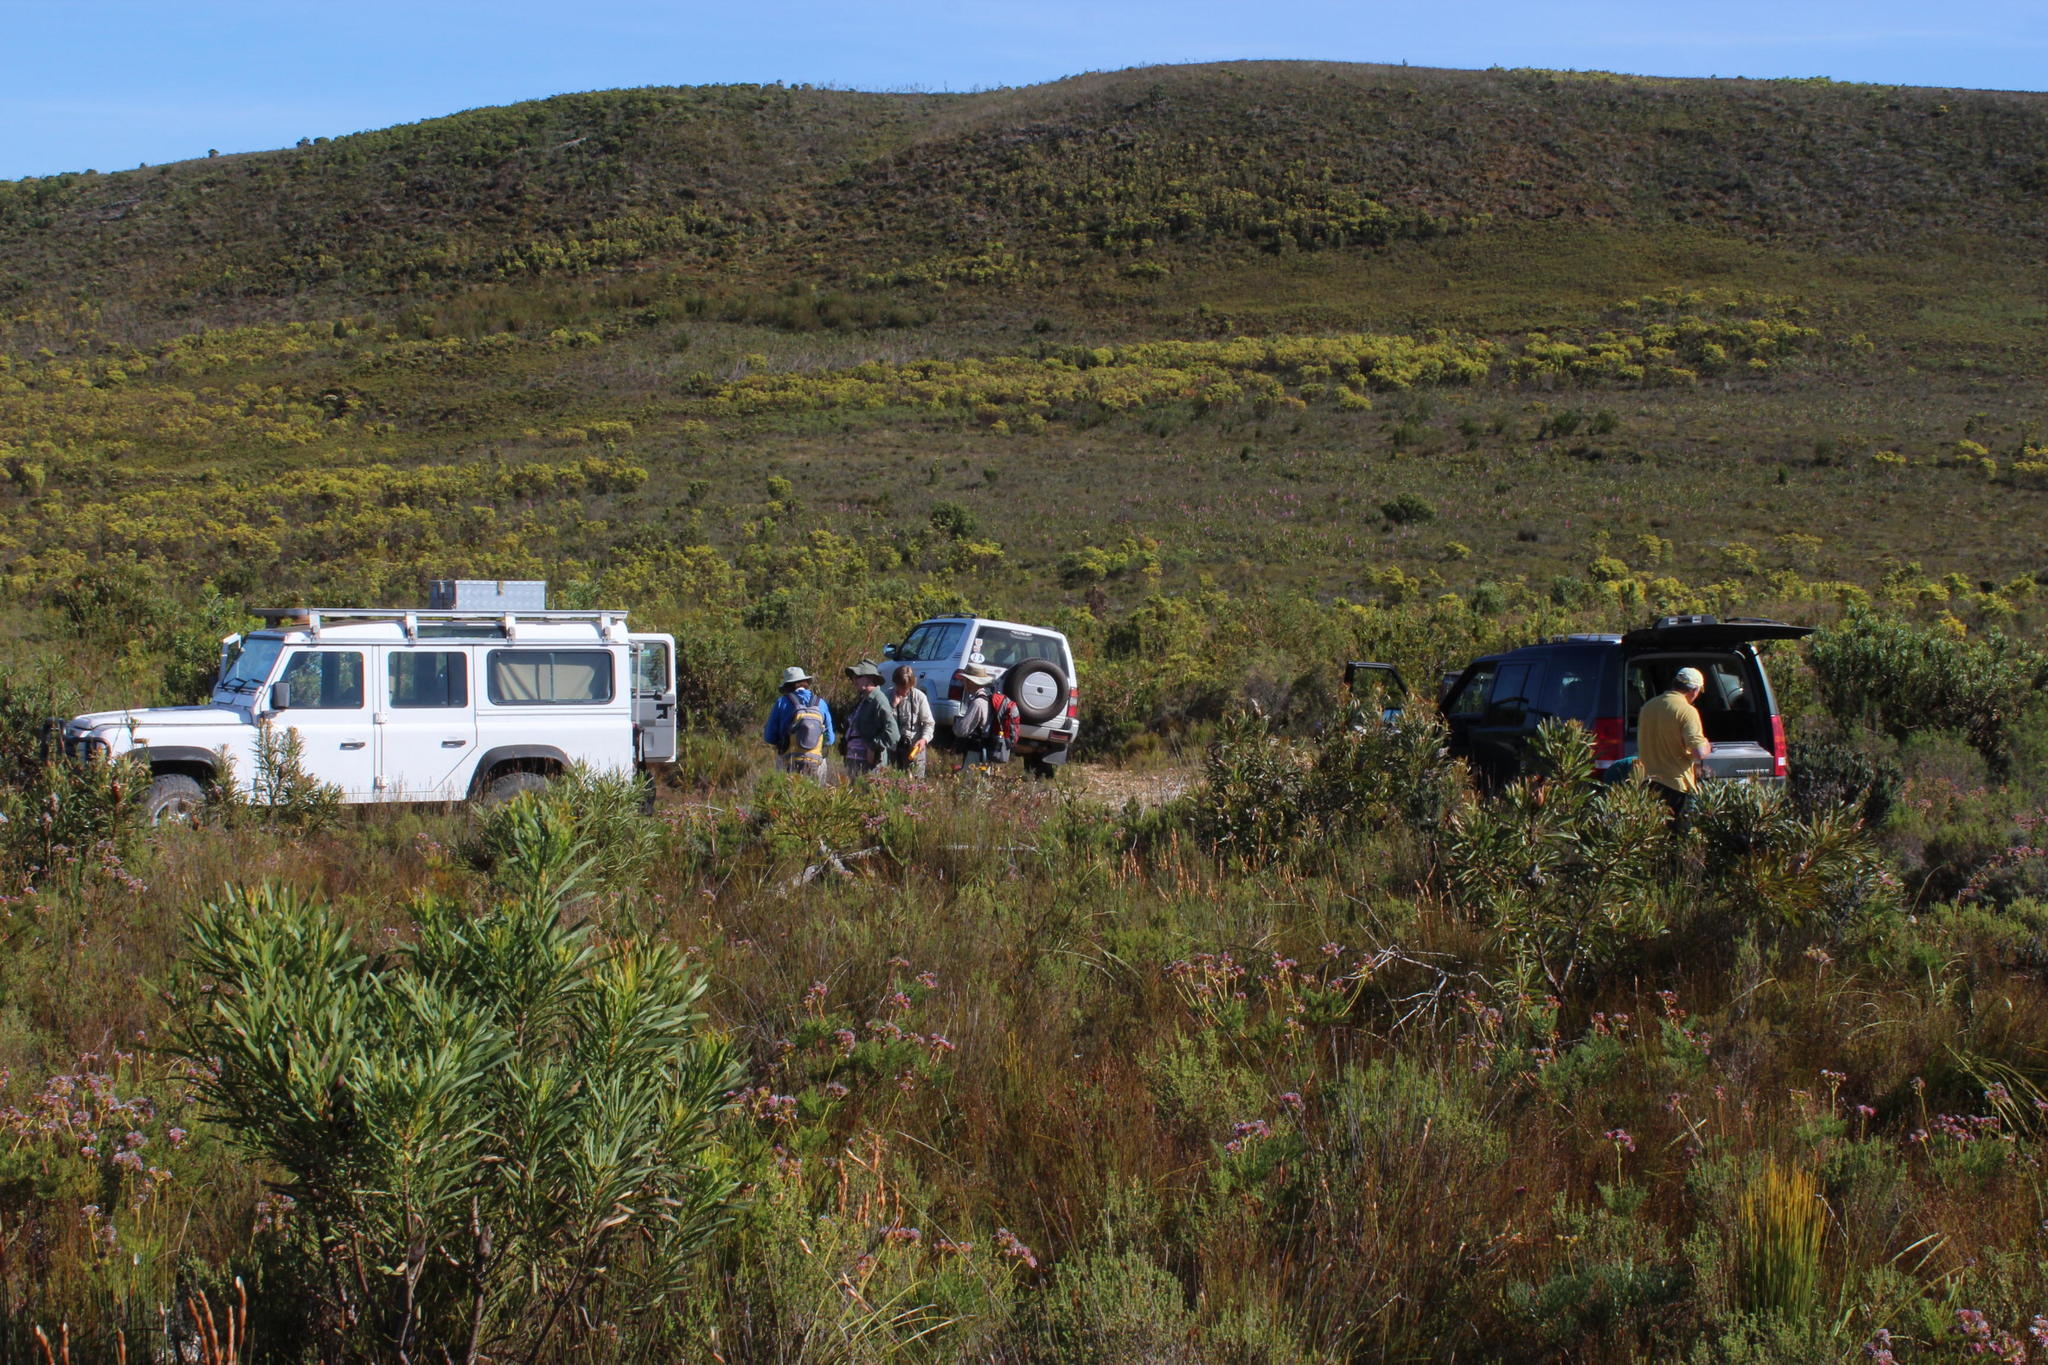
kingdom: Plantae
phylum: Tracheophyta
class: Magnoliopsida
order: Proteales
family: Proteaceae
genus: Leucadendron
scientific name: Leucadendron xanthoconus
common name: Sickle-leaf conebush
